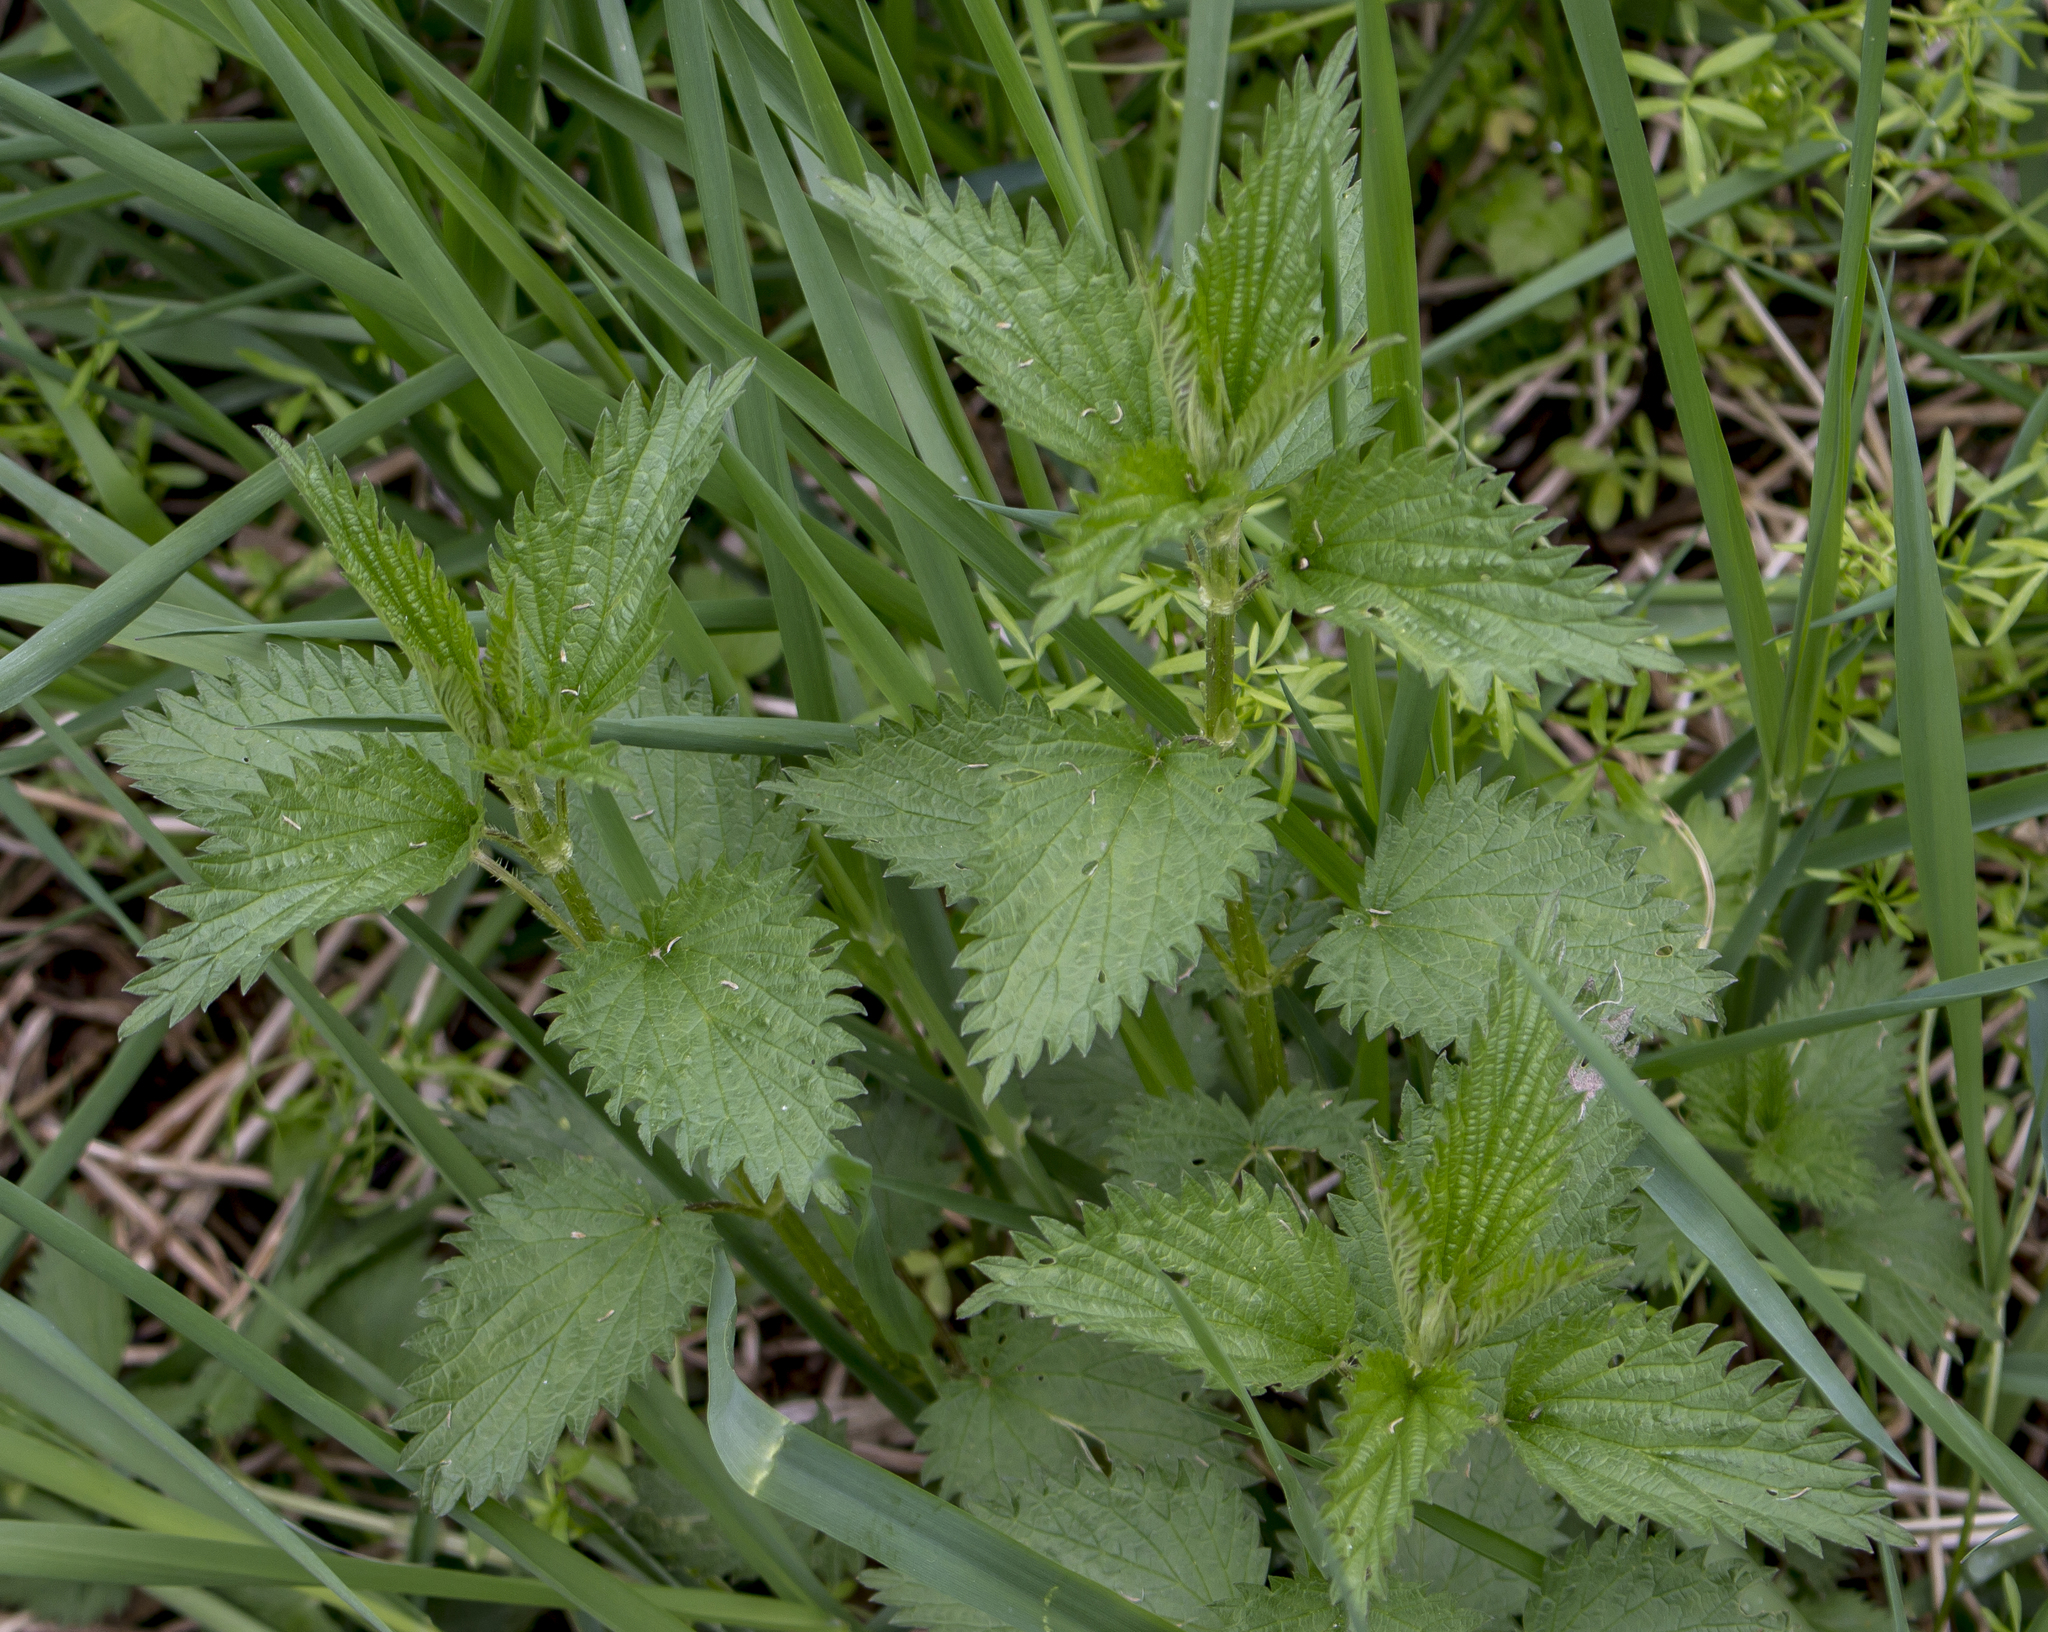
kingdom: Plantae
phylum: Tracheophyta
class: Magnoliopsida
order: Rosales
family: Urticaceae
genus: Urtica
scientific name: Urtica dioica
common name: Common nettle
